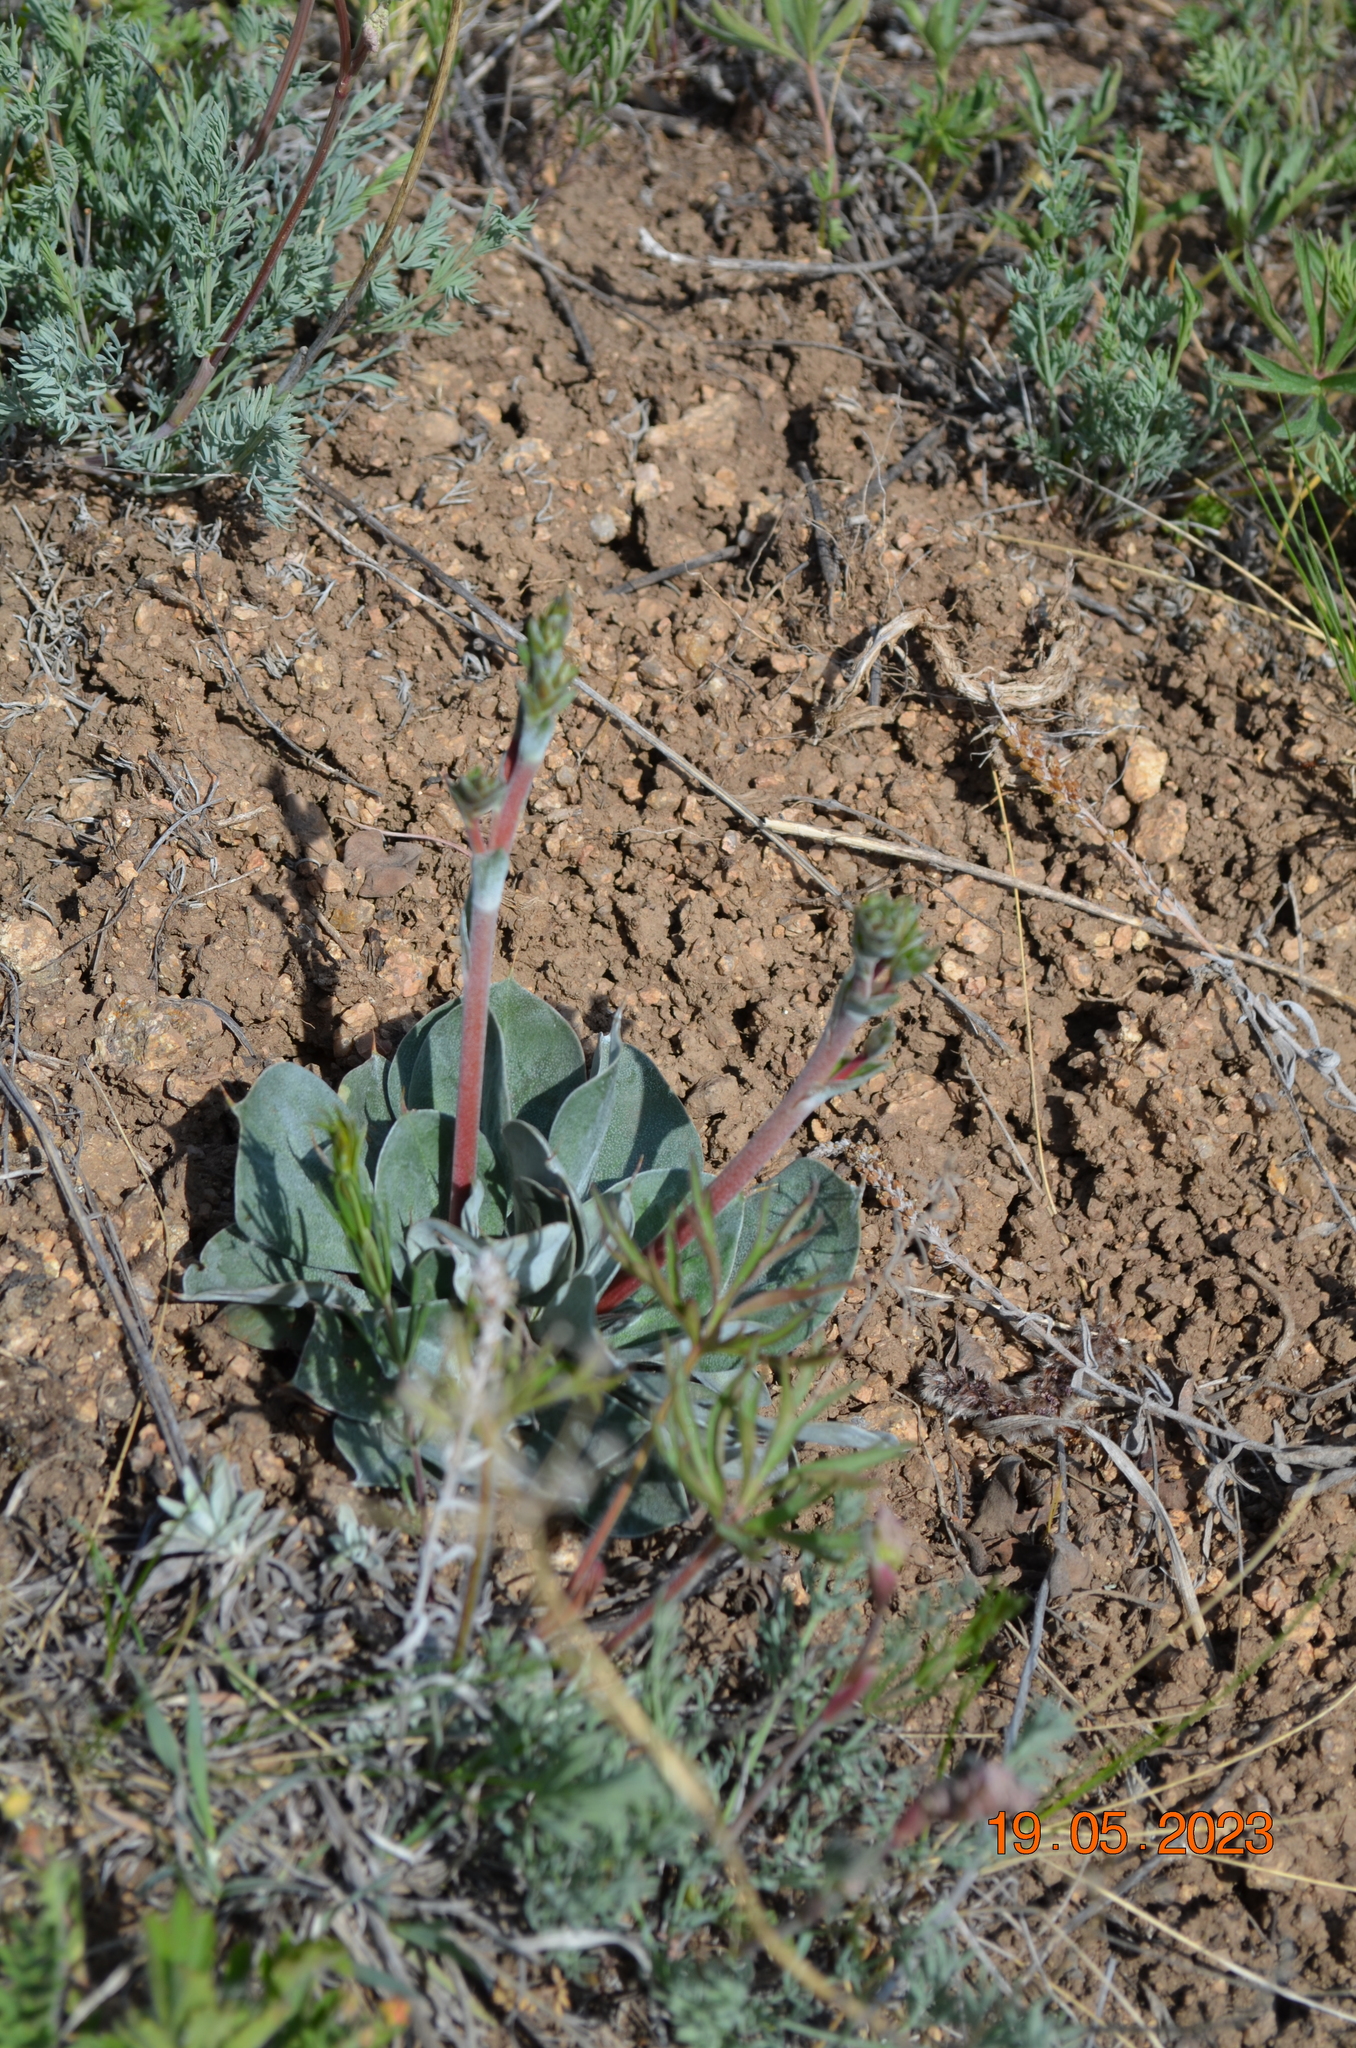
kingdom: Plantae
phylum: Tracheophyta
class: Magnoliopsida
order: Caryophyllales
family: Plumbaginaceae
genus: Goniolimon
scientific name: Goniolimon speciosum
